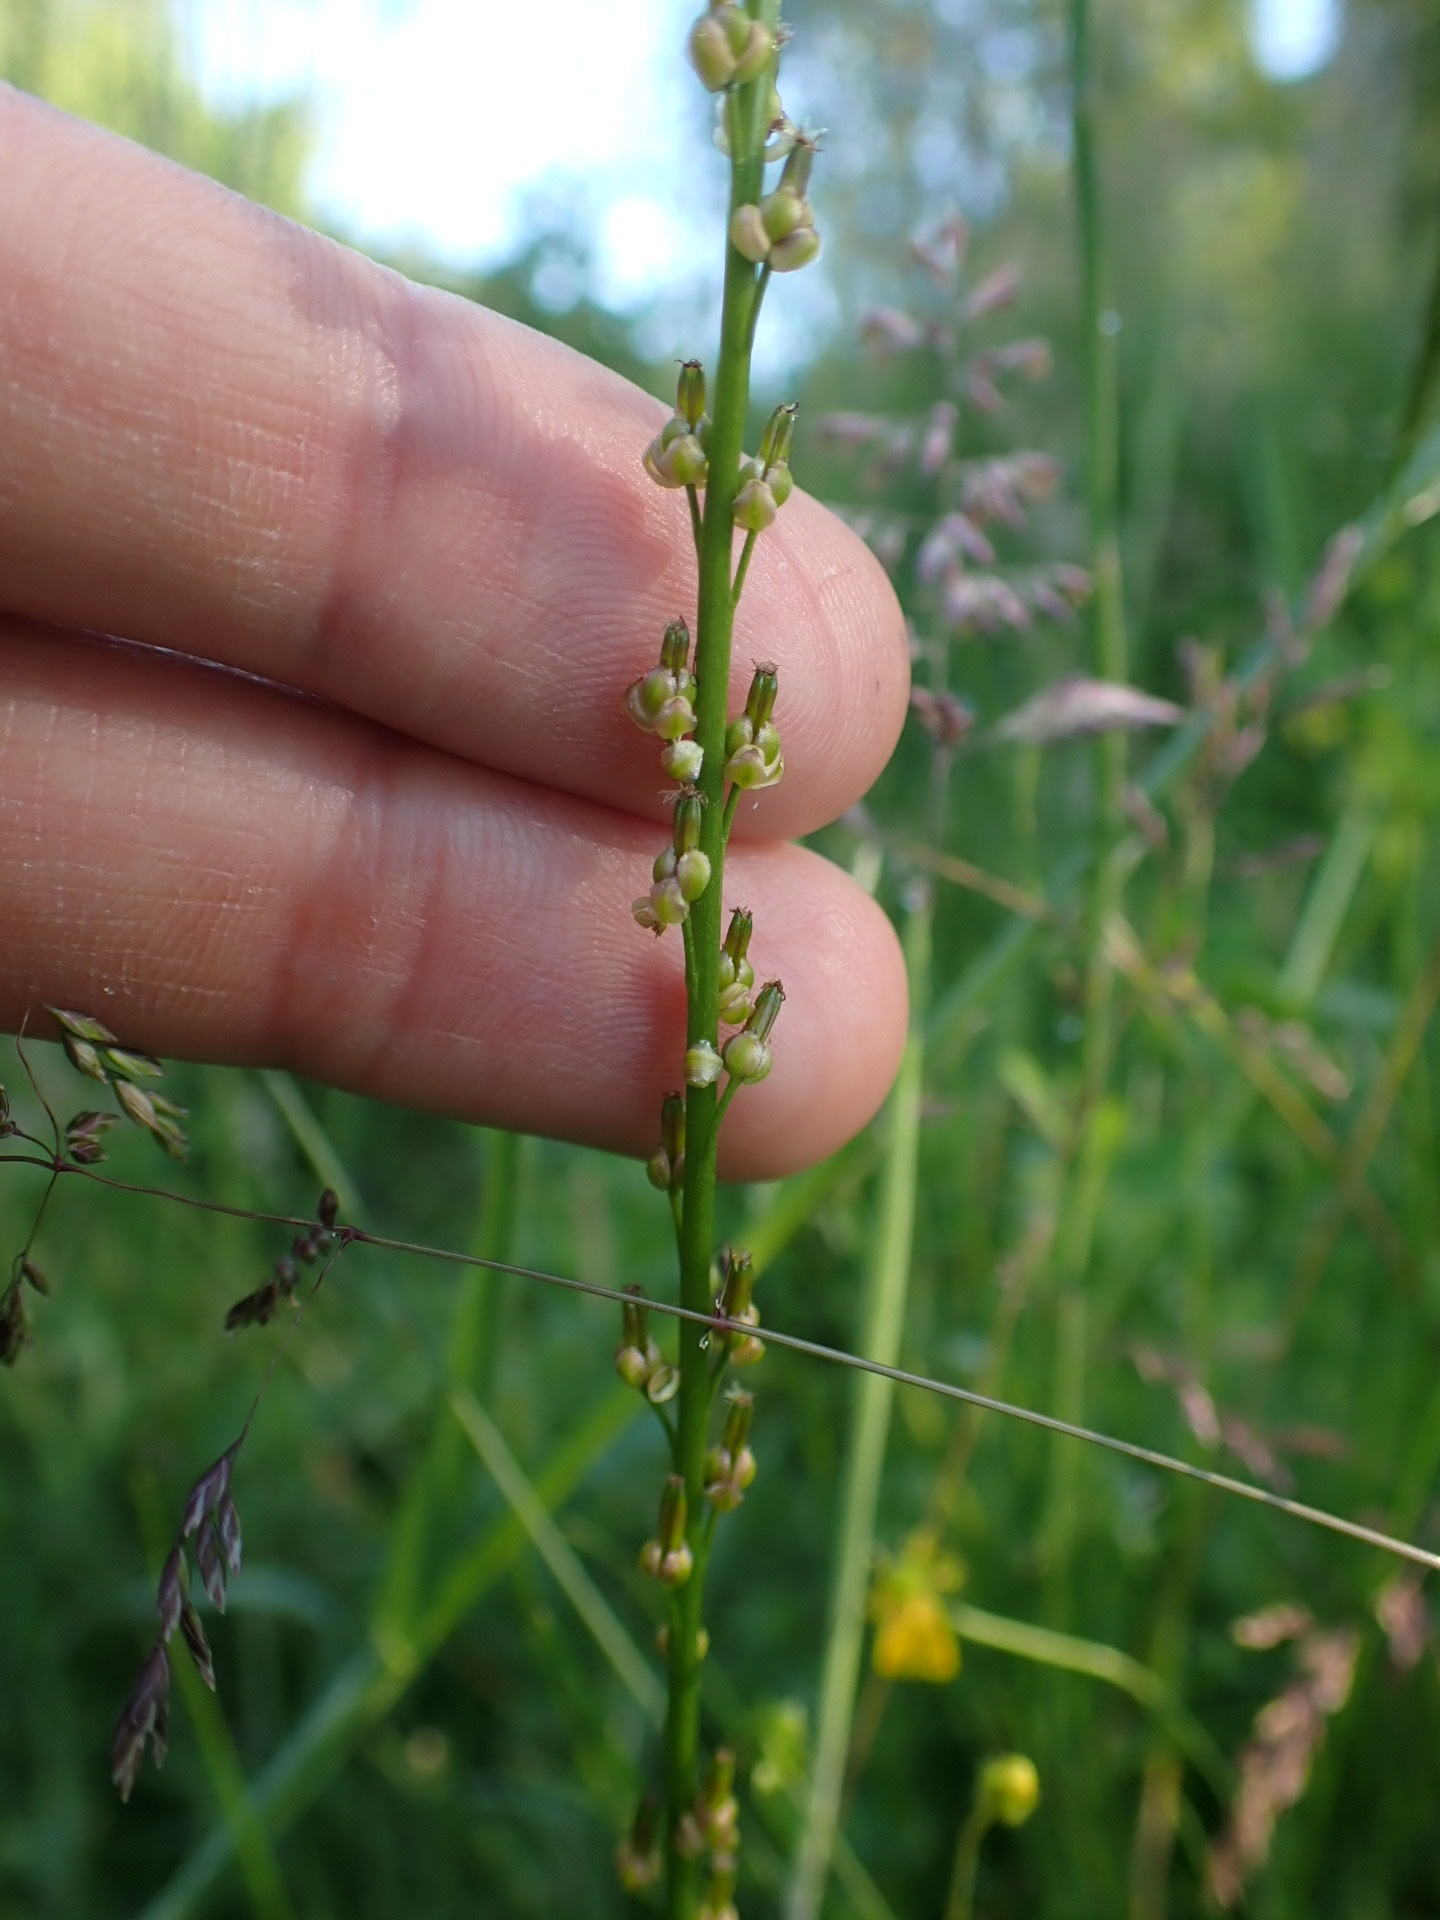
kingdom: Plantae
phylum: Tracheophyta
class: Liliopsida
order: Alismatales
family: Juncaginaceae
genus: Triglochin
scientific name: Triglochin palustris
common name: Marsh arrowgrass
